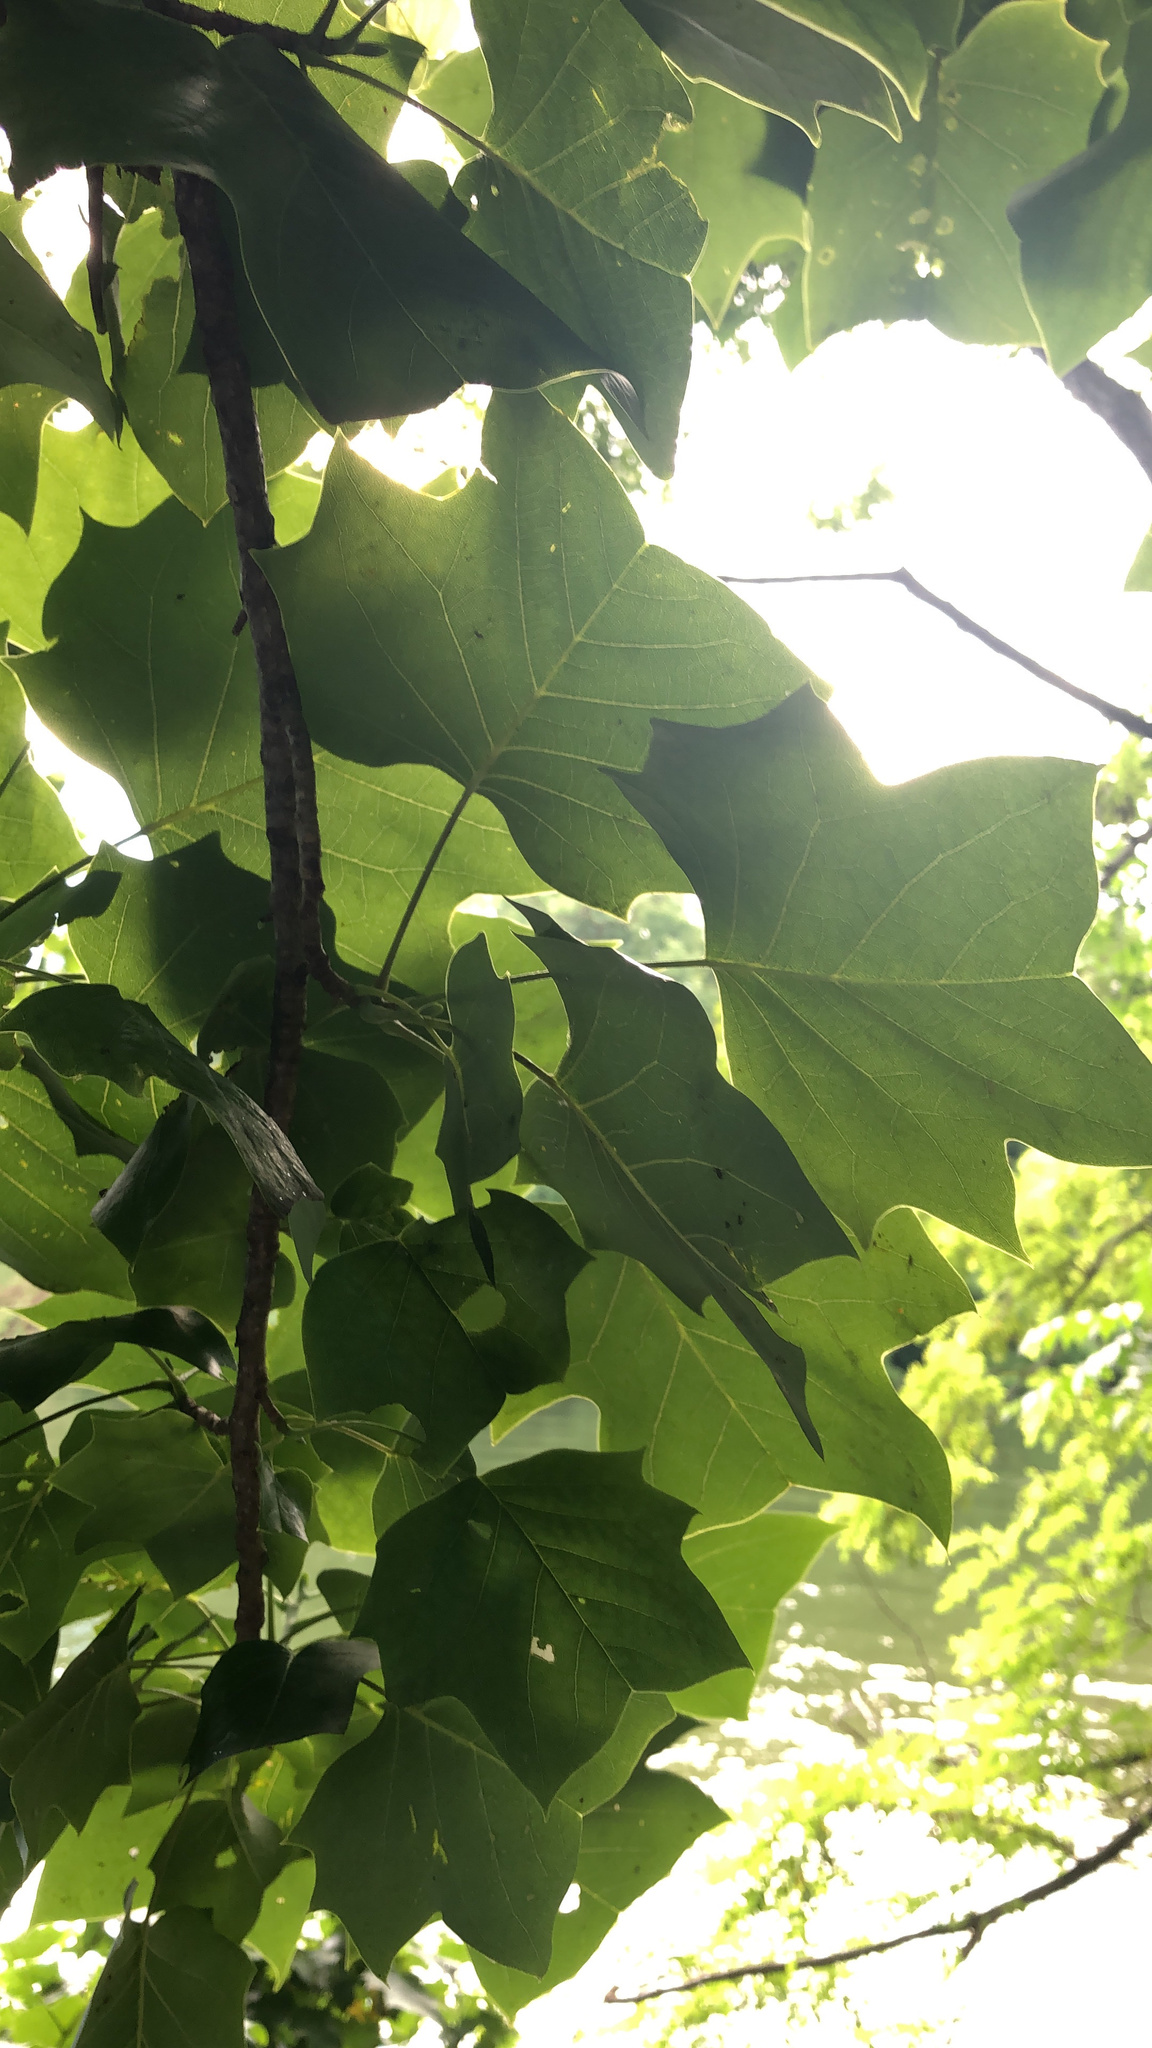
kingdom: Plantae
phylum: Tracheophyta
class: Magnoliopsida
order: Magnoliales
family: Magnoliaceae
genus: Liriodendron
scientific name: Liriodendron tulipifera
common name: Tulip tree
